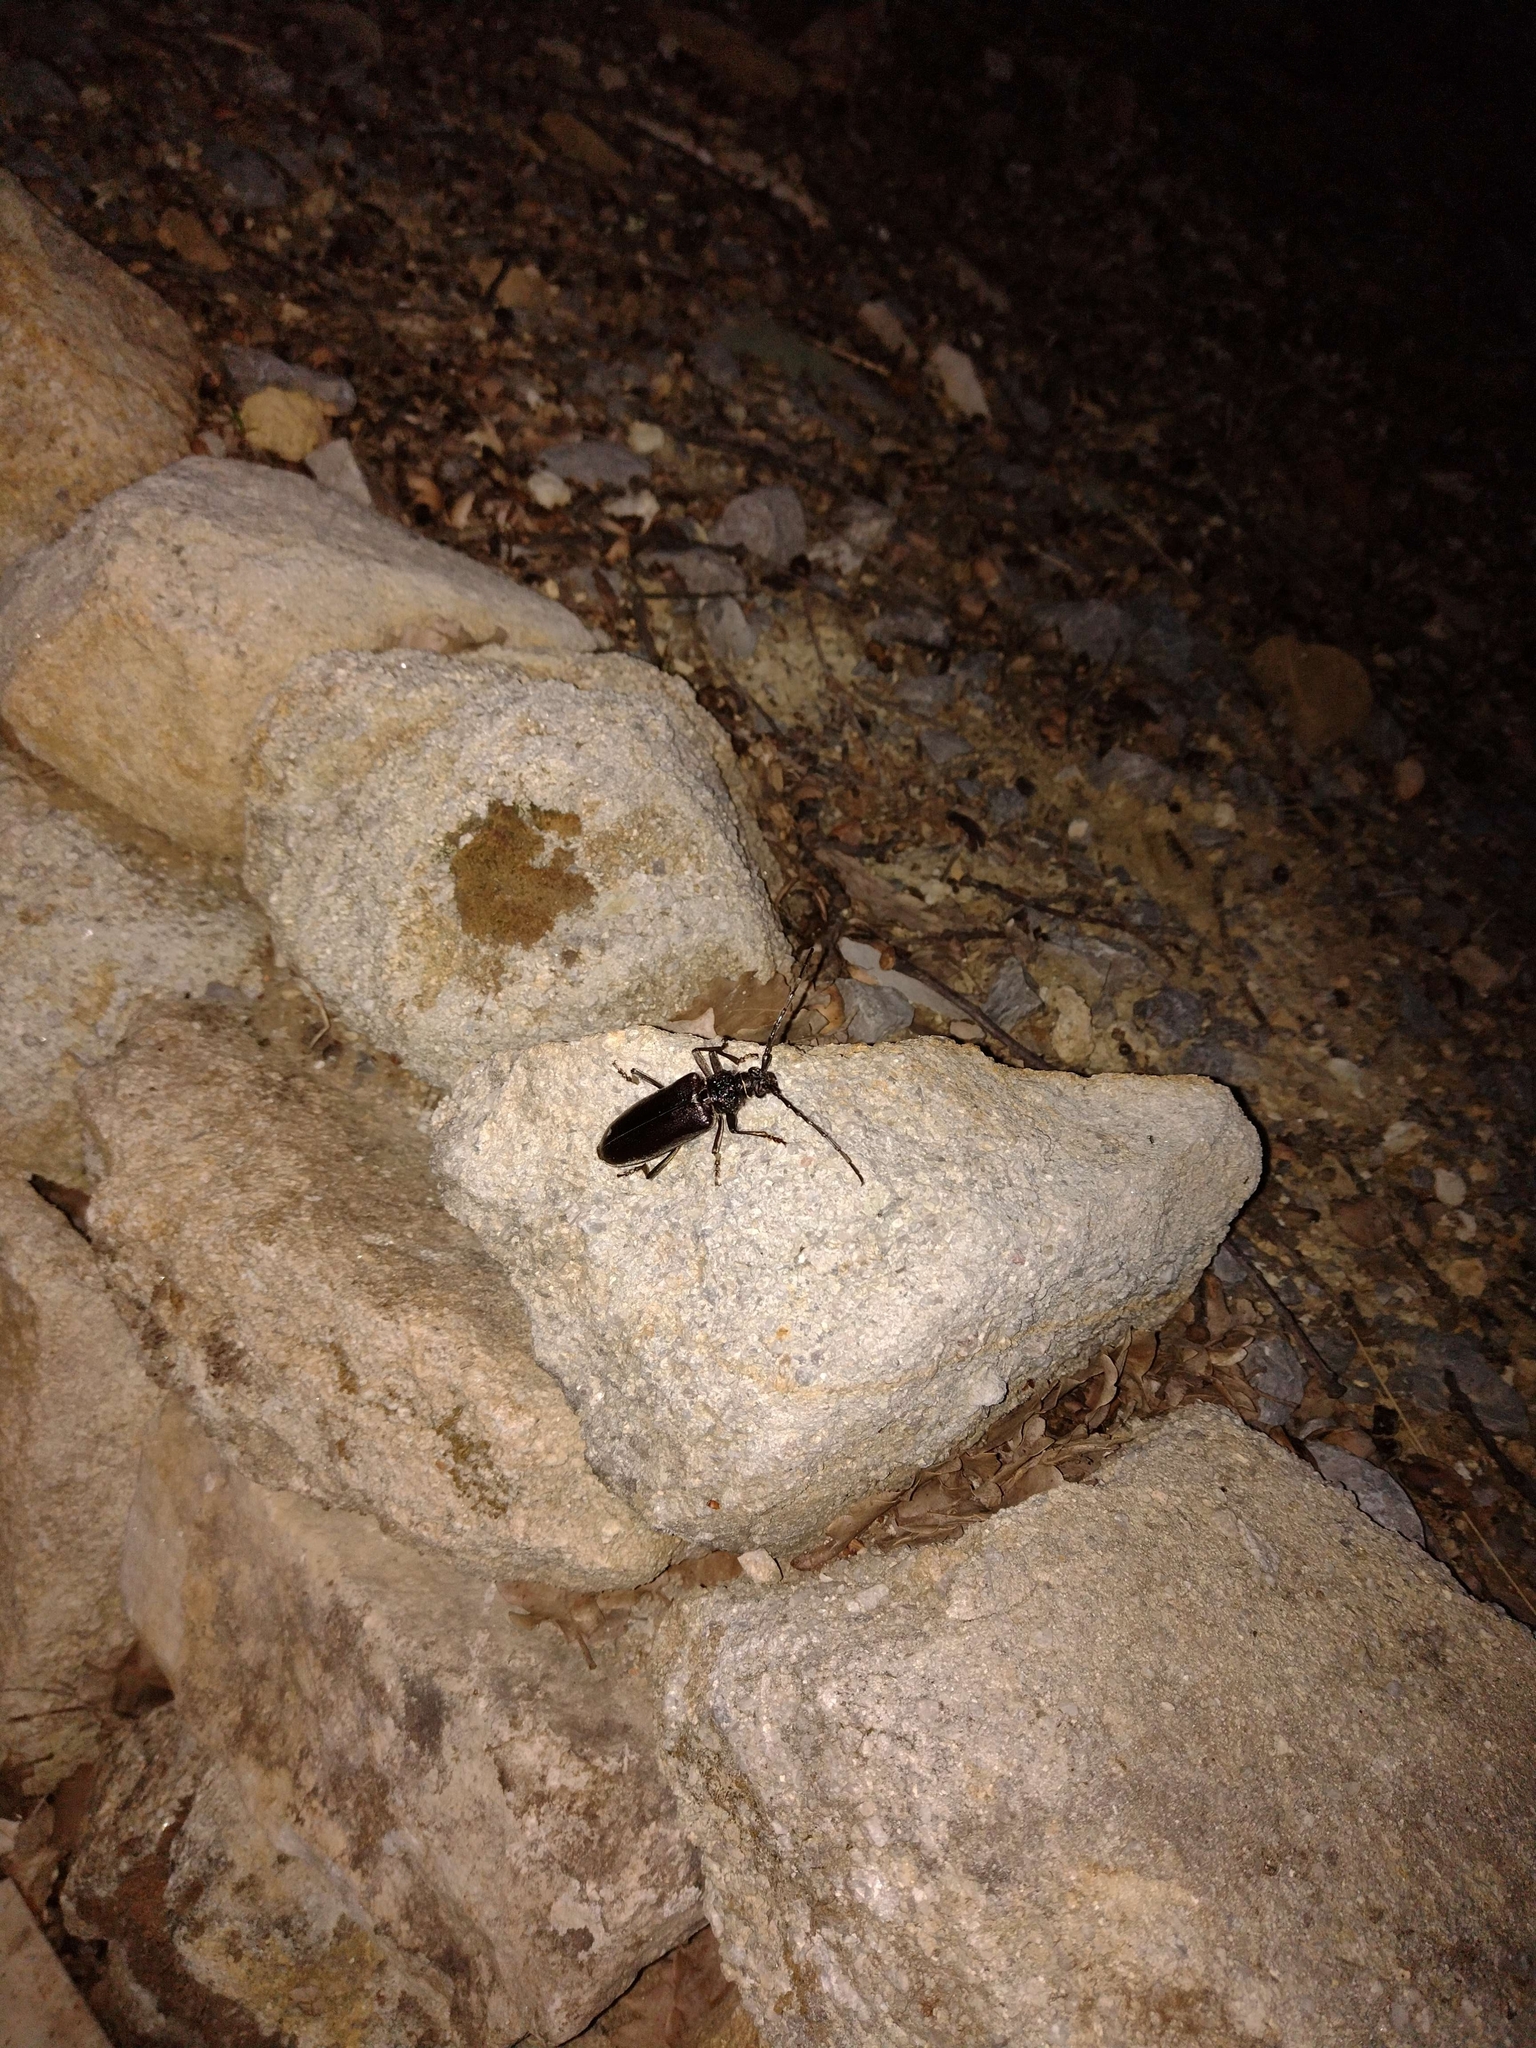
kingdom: Animalia
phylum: Arthropoda
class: Insecta
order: Coleoptera
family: Cerambycidae
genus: Cerambyx
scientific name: Cerambyx welensii
